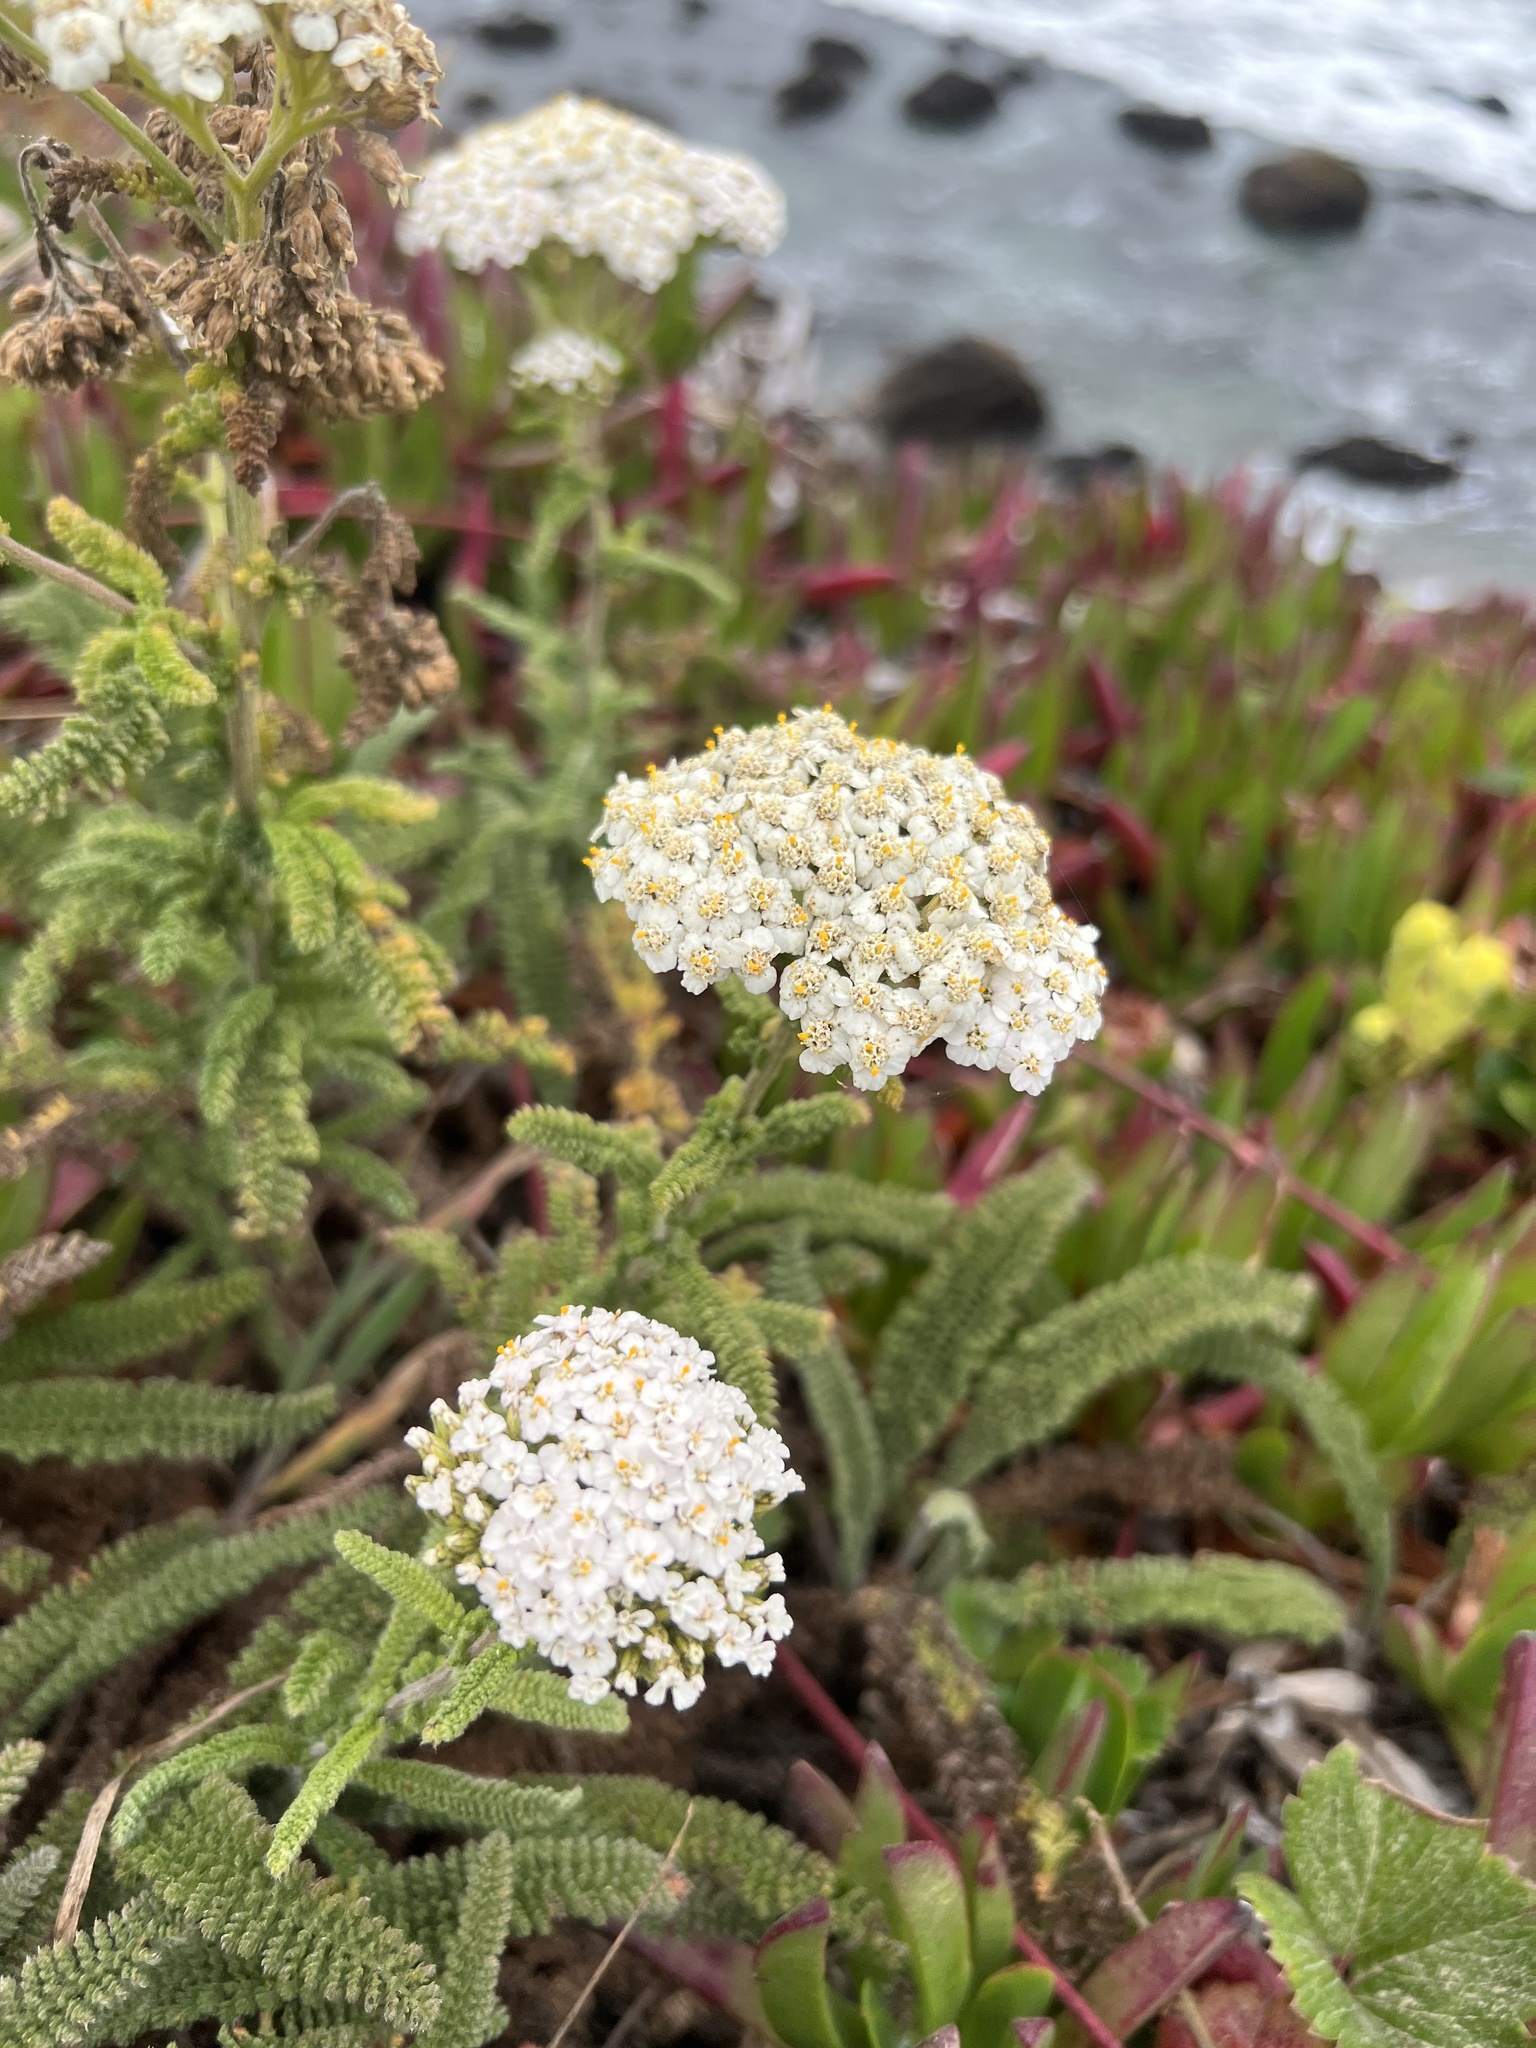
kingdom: Plantae
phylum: Tracheophyta
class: Magnoliopsida
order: Asterales
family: Asteraceae
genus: Achillea
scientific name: Achillea millefolium
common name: Yarrow
